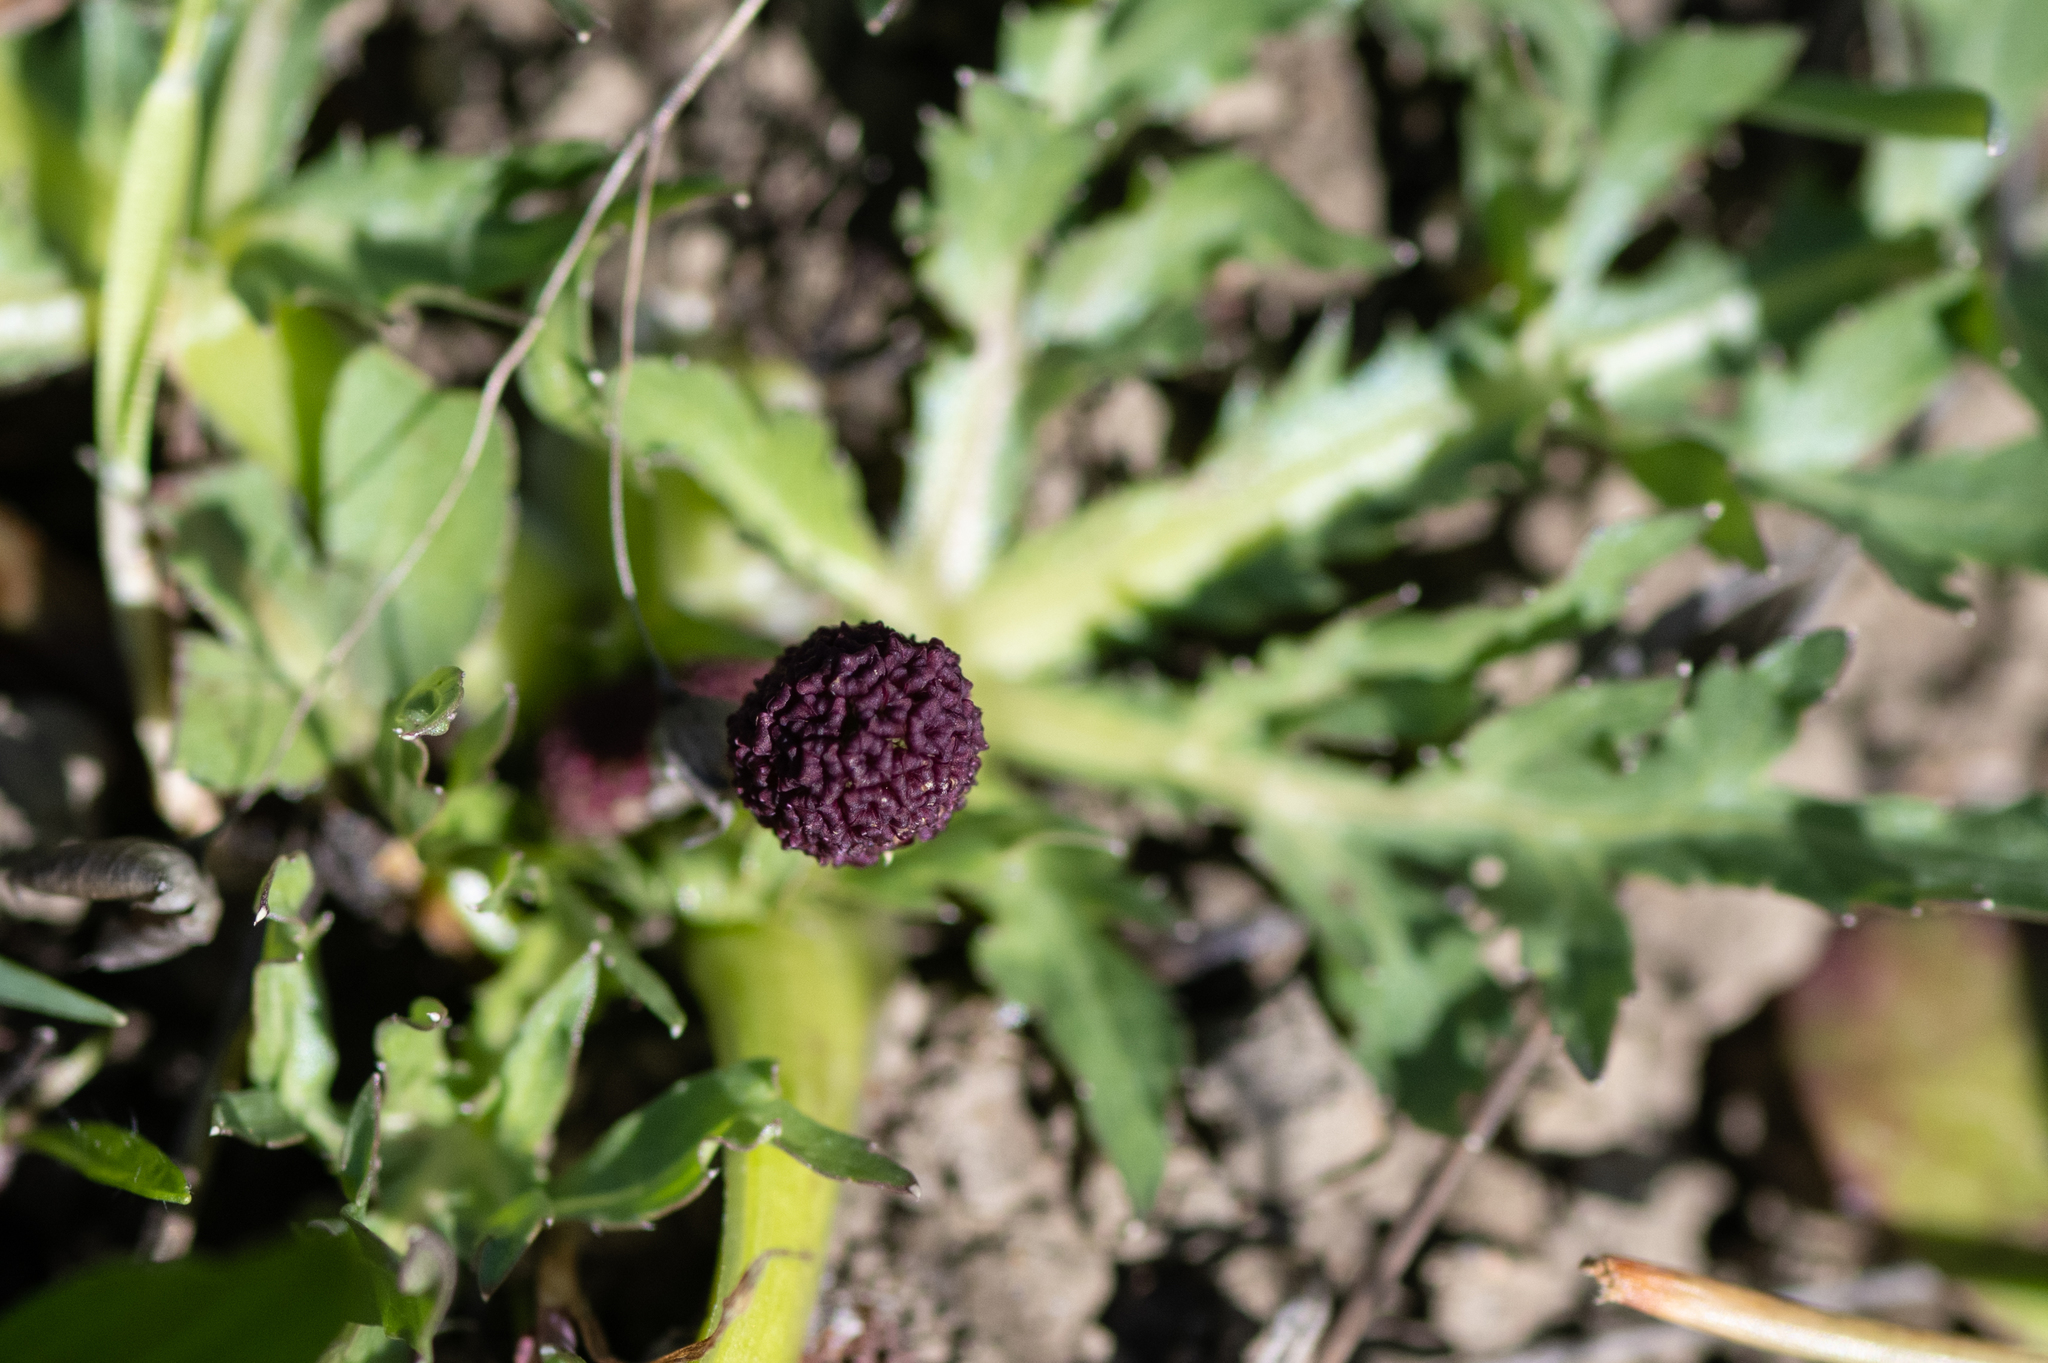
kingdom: Plantae
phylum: Tracheophyta
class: Magnoliopsida
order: Apiales
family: Apiaceae
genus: Sanicula
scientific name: Sanicula bipinnatifida
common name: Shoe-buttons
